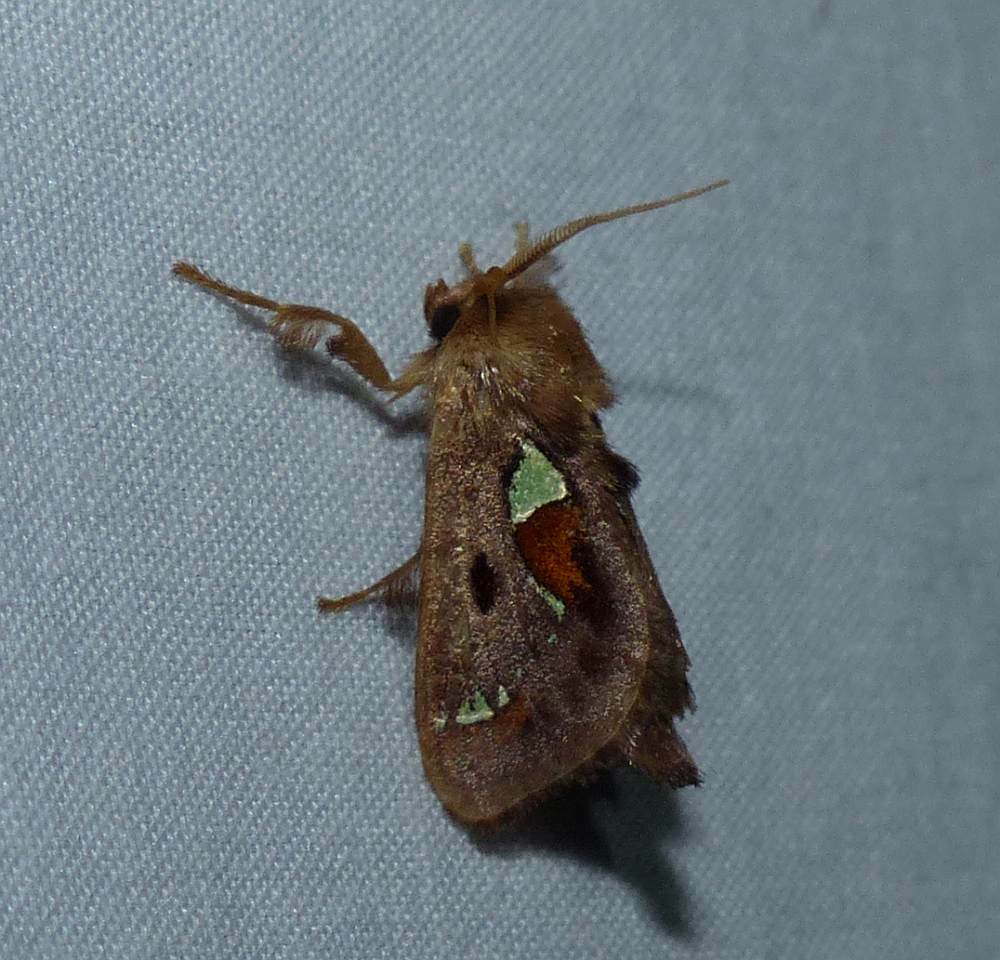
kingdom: Animalia
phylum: Arthropoda
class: Insecta
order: Lepidoptera
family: Limacodidae
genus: Euclea
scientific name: Euclea delphinii
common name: Spiny oak-slug moth
